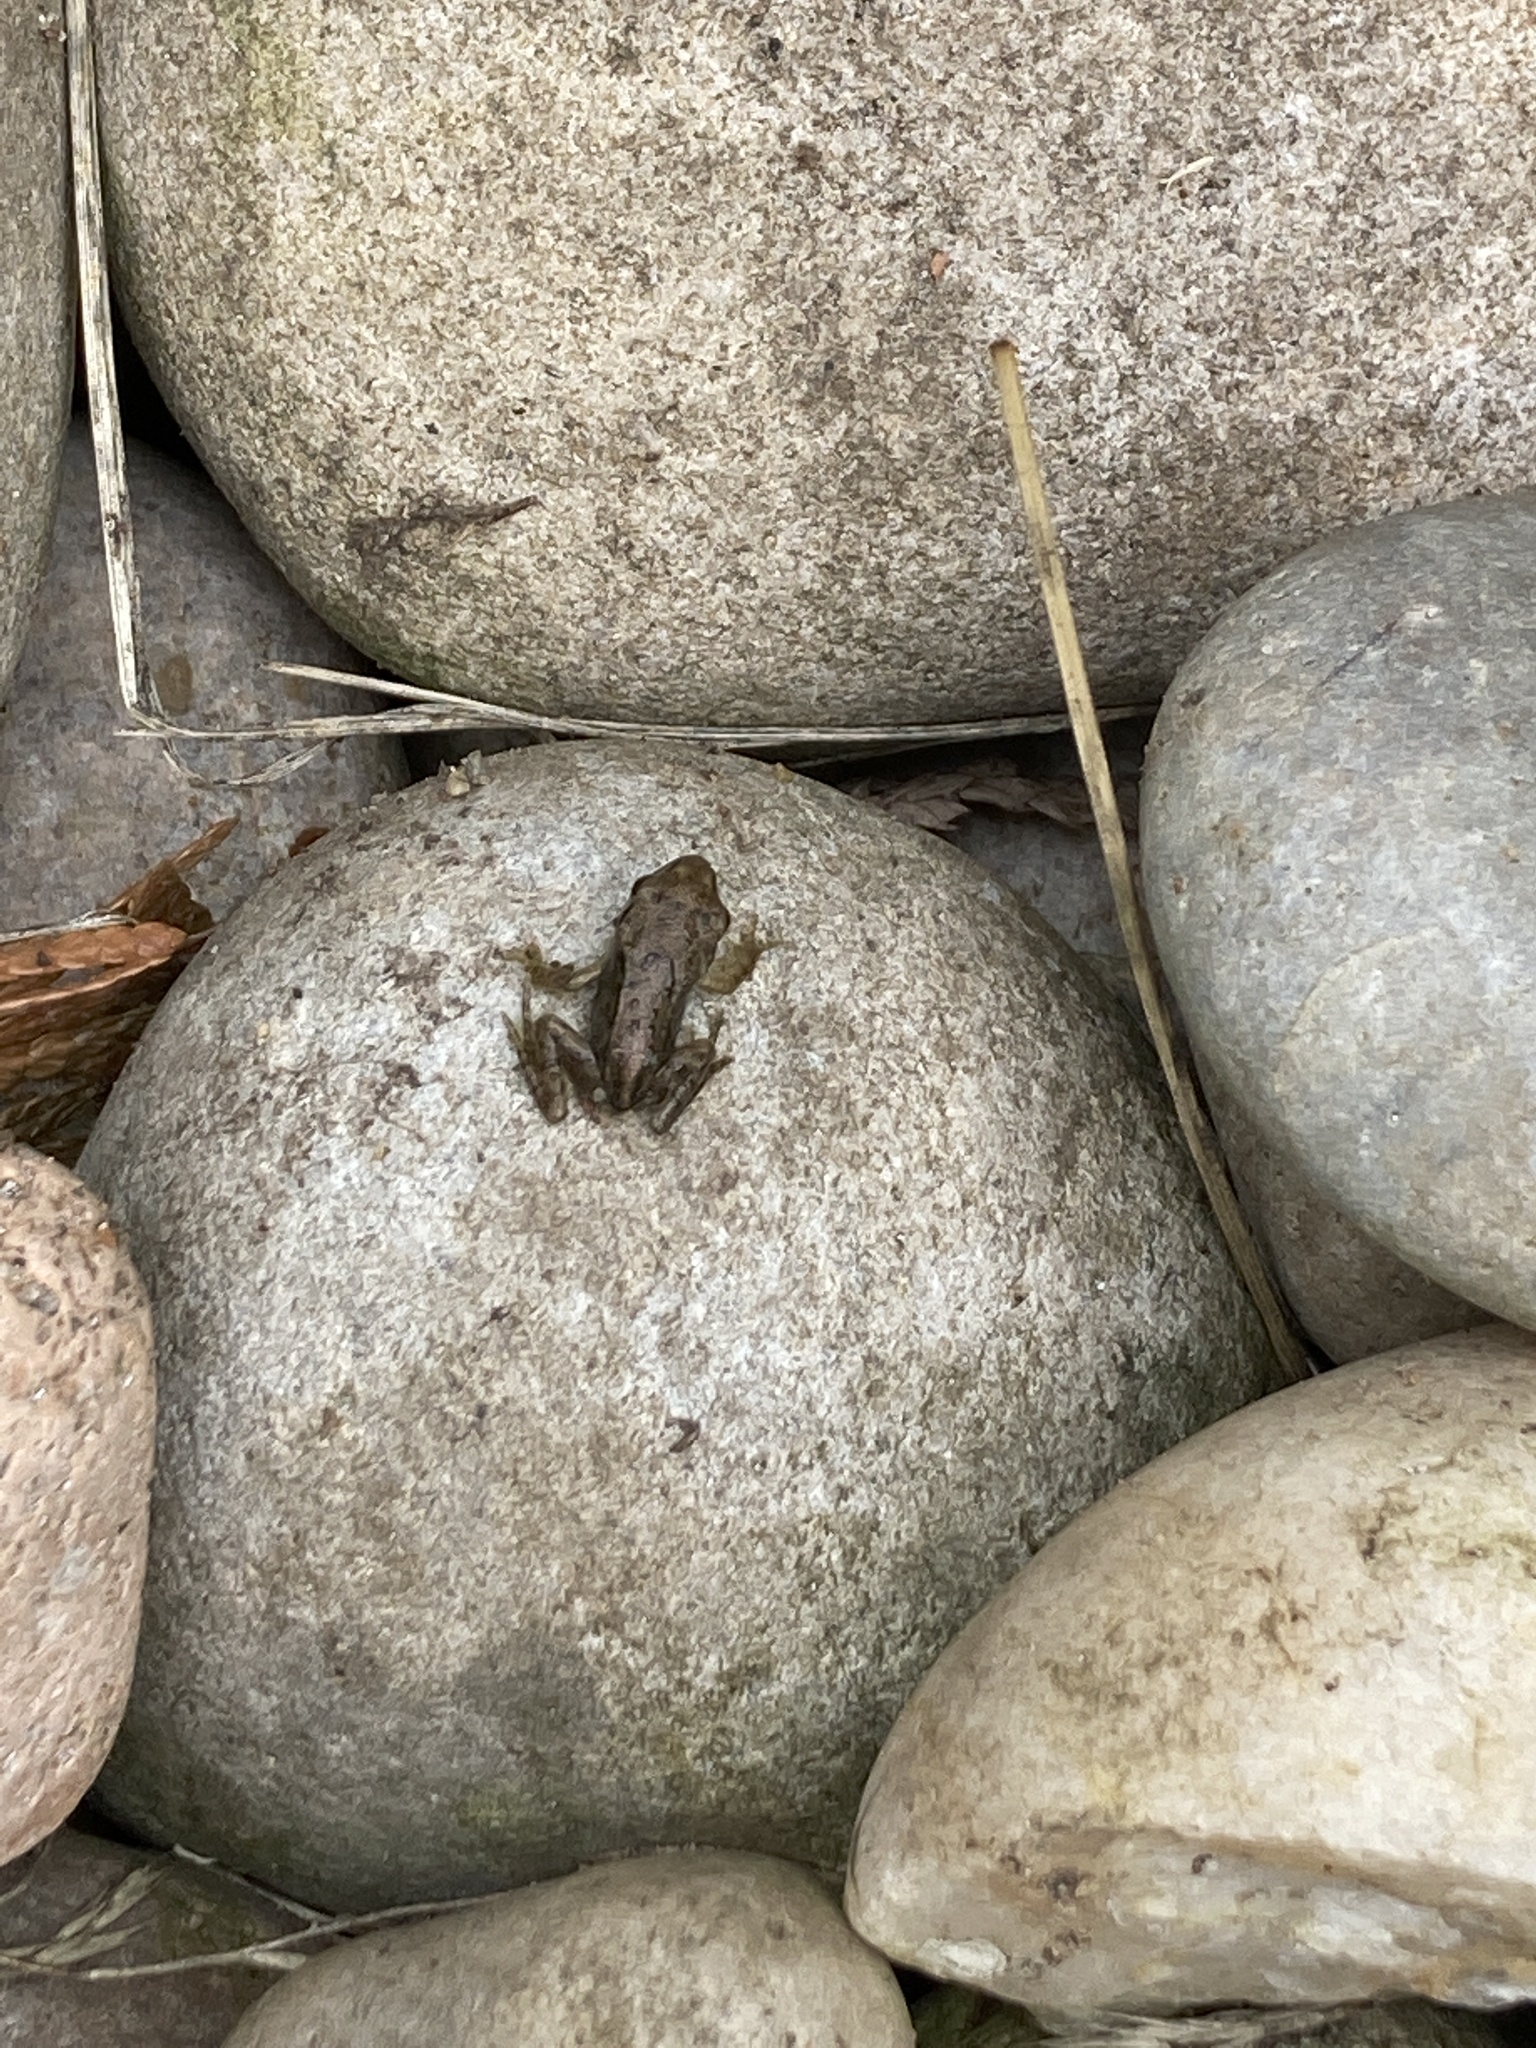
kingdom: Animalia
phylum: Chordata
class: Amphibia
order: Anura
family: Ranidae
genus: Rana
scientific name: Rana temporaria
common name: Common frog
